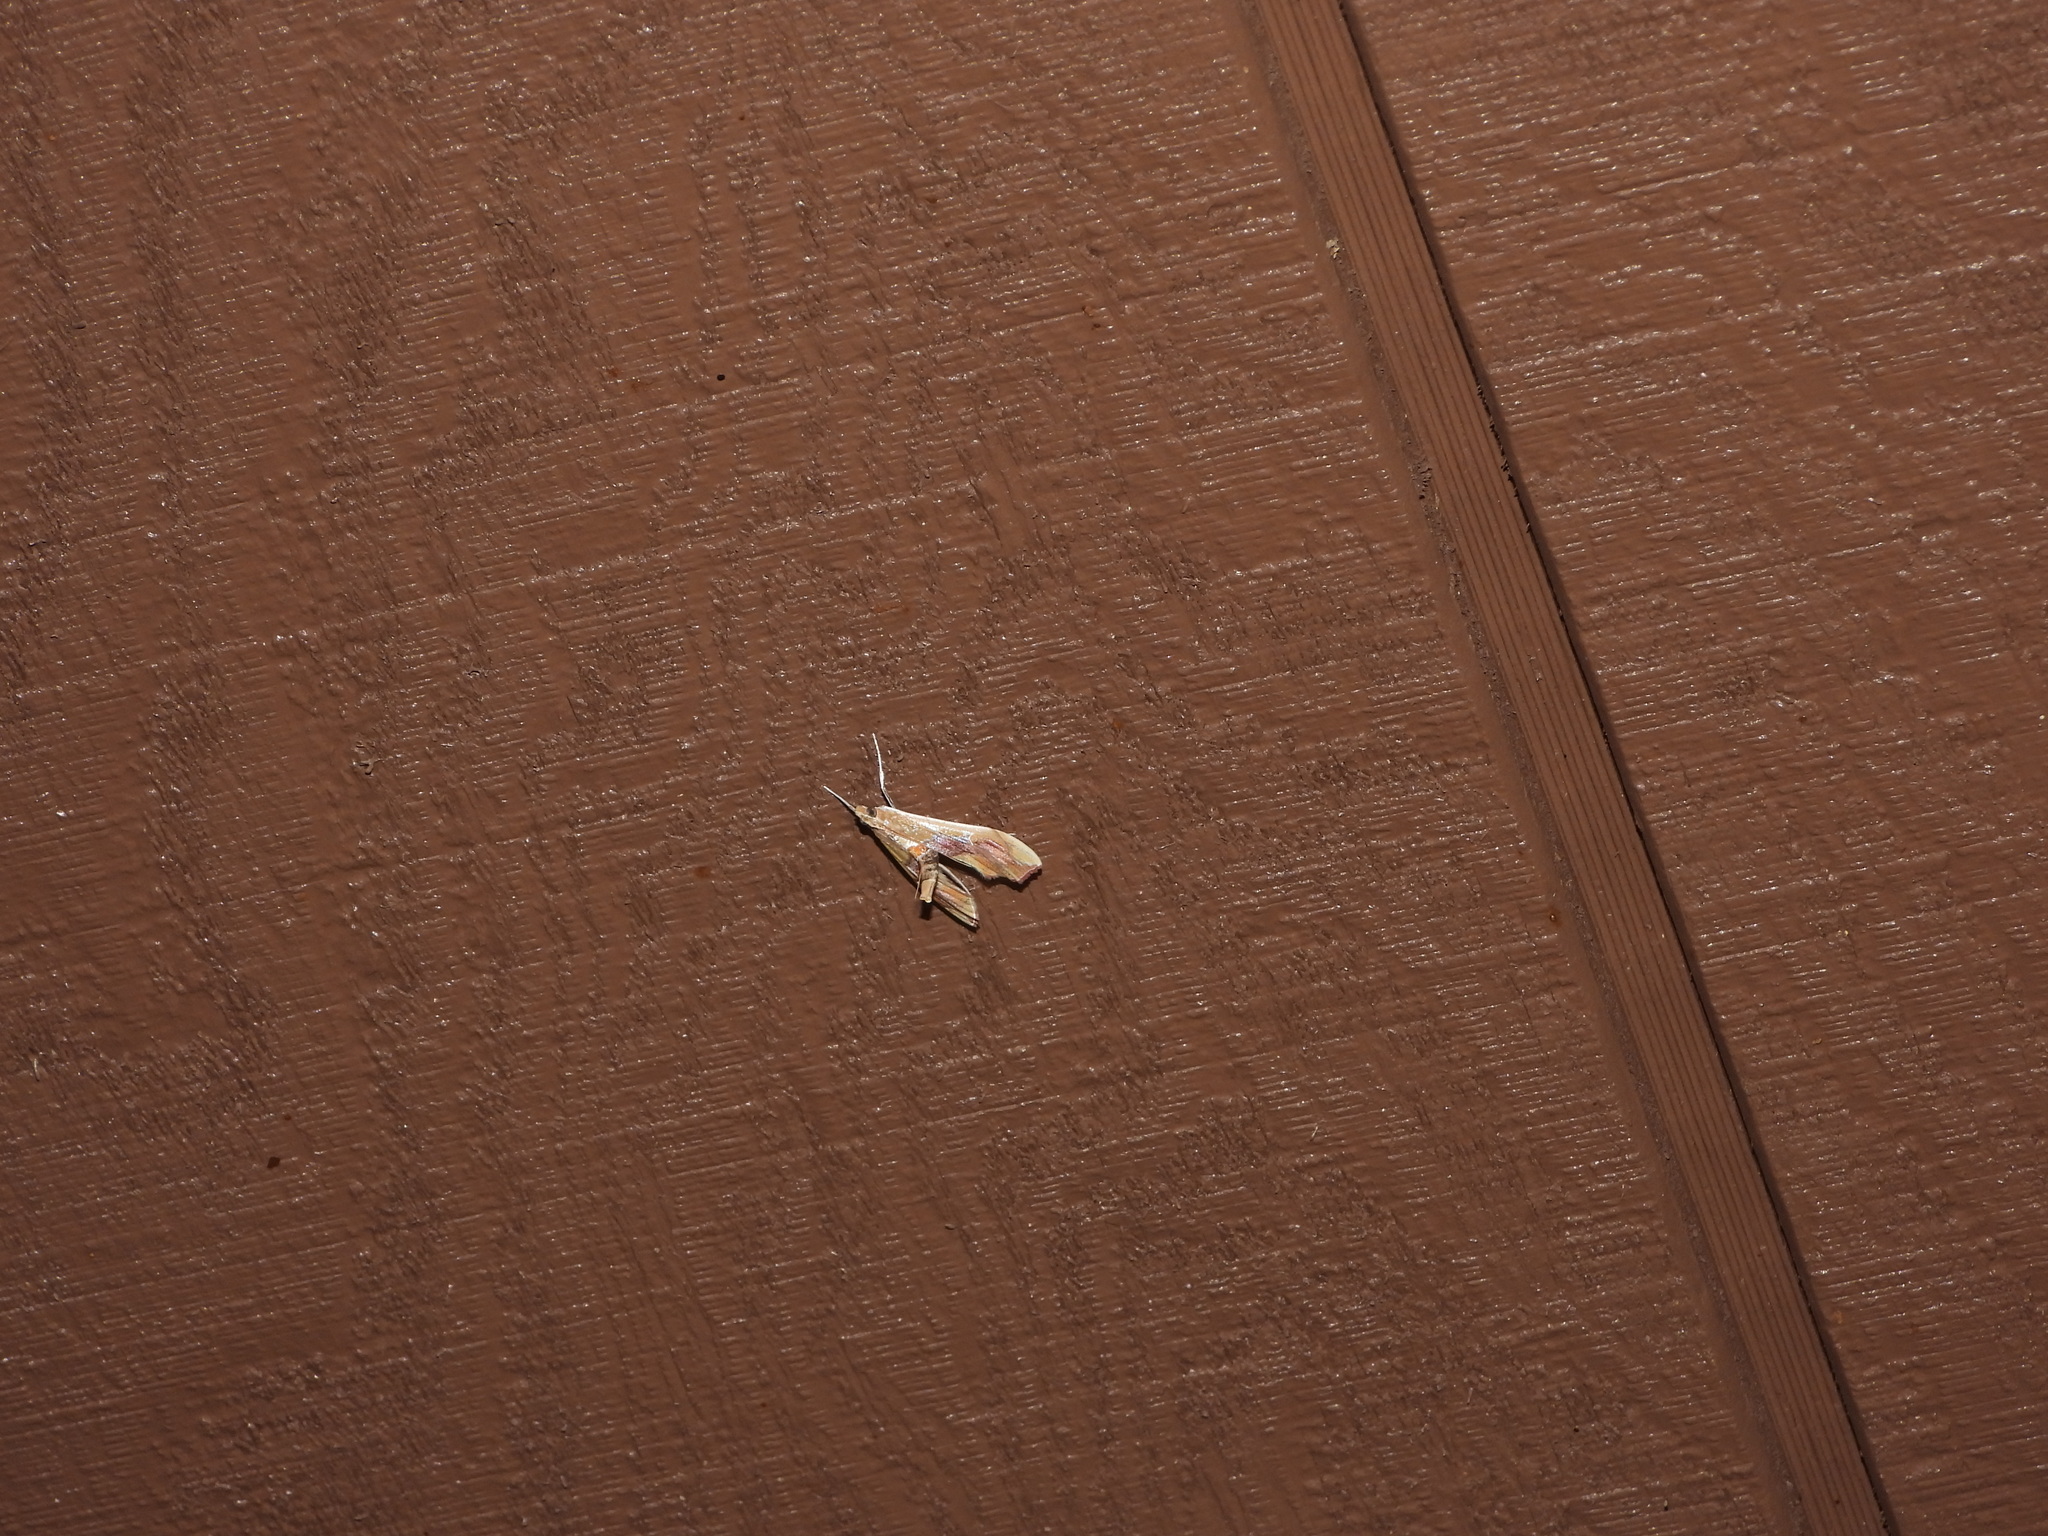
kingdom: Animalia
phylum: Arthropoda
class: Insecta
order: Lepidoptera
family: Crambidae
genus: Agathodes
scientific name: Agathodes monstralis
